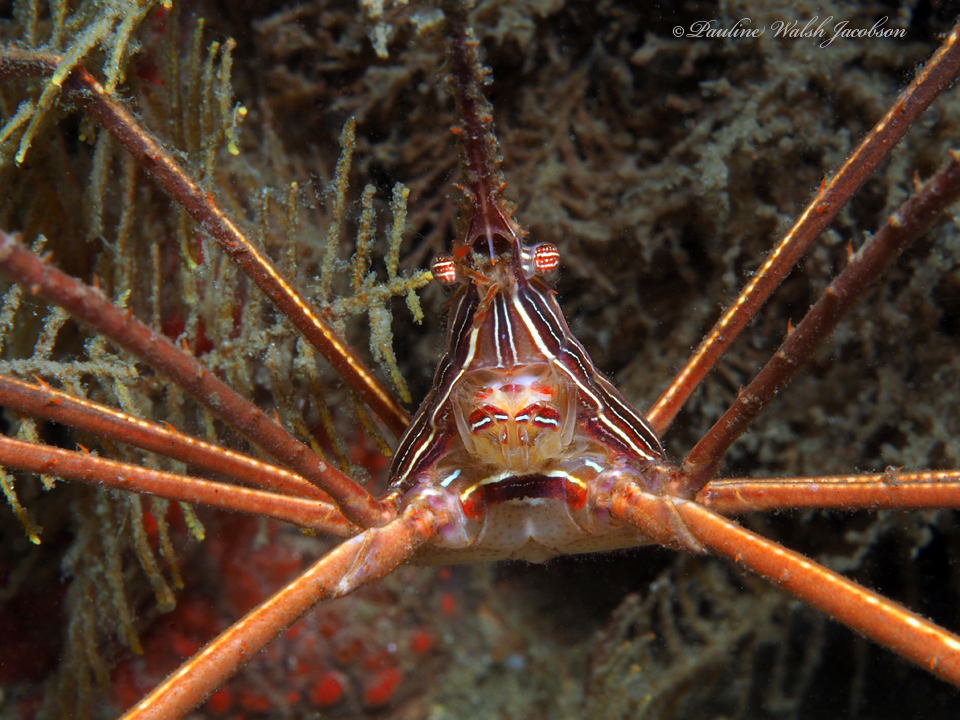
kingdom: Animalia
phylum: Arthropoda
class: Malacostraca
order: Decapoda
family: Inachoididae
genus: Stenorhynchus
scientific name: Stenorhynchus seticornis
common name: Arrow crab
